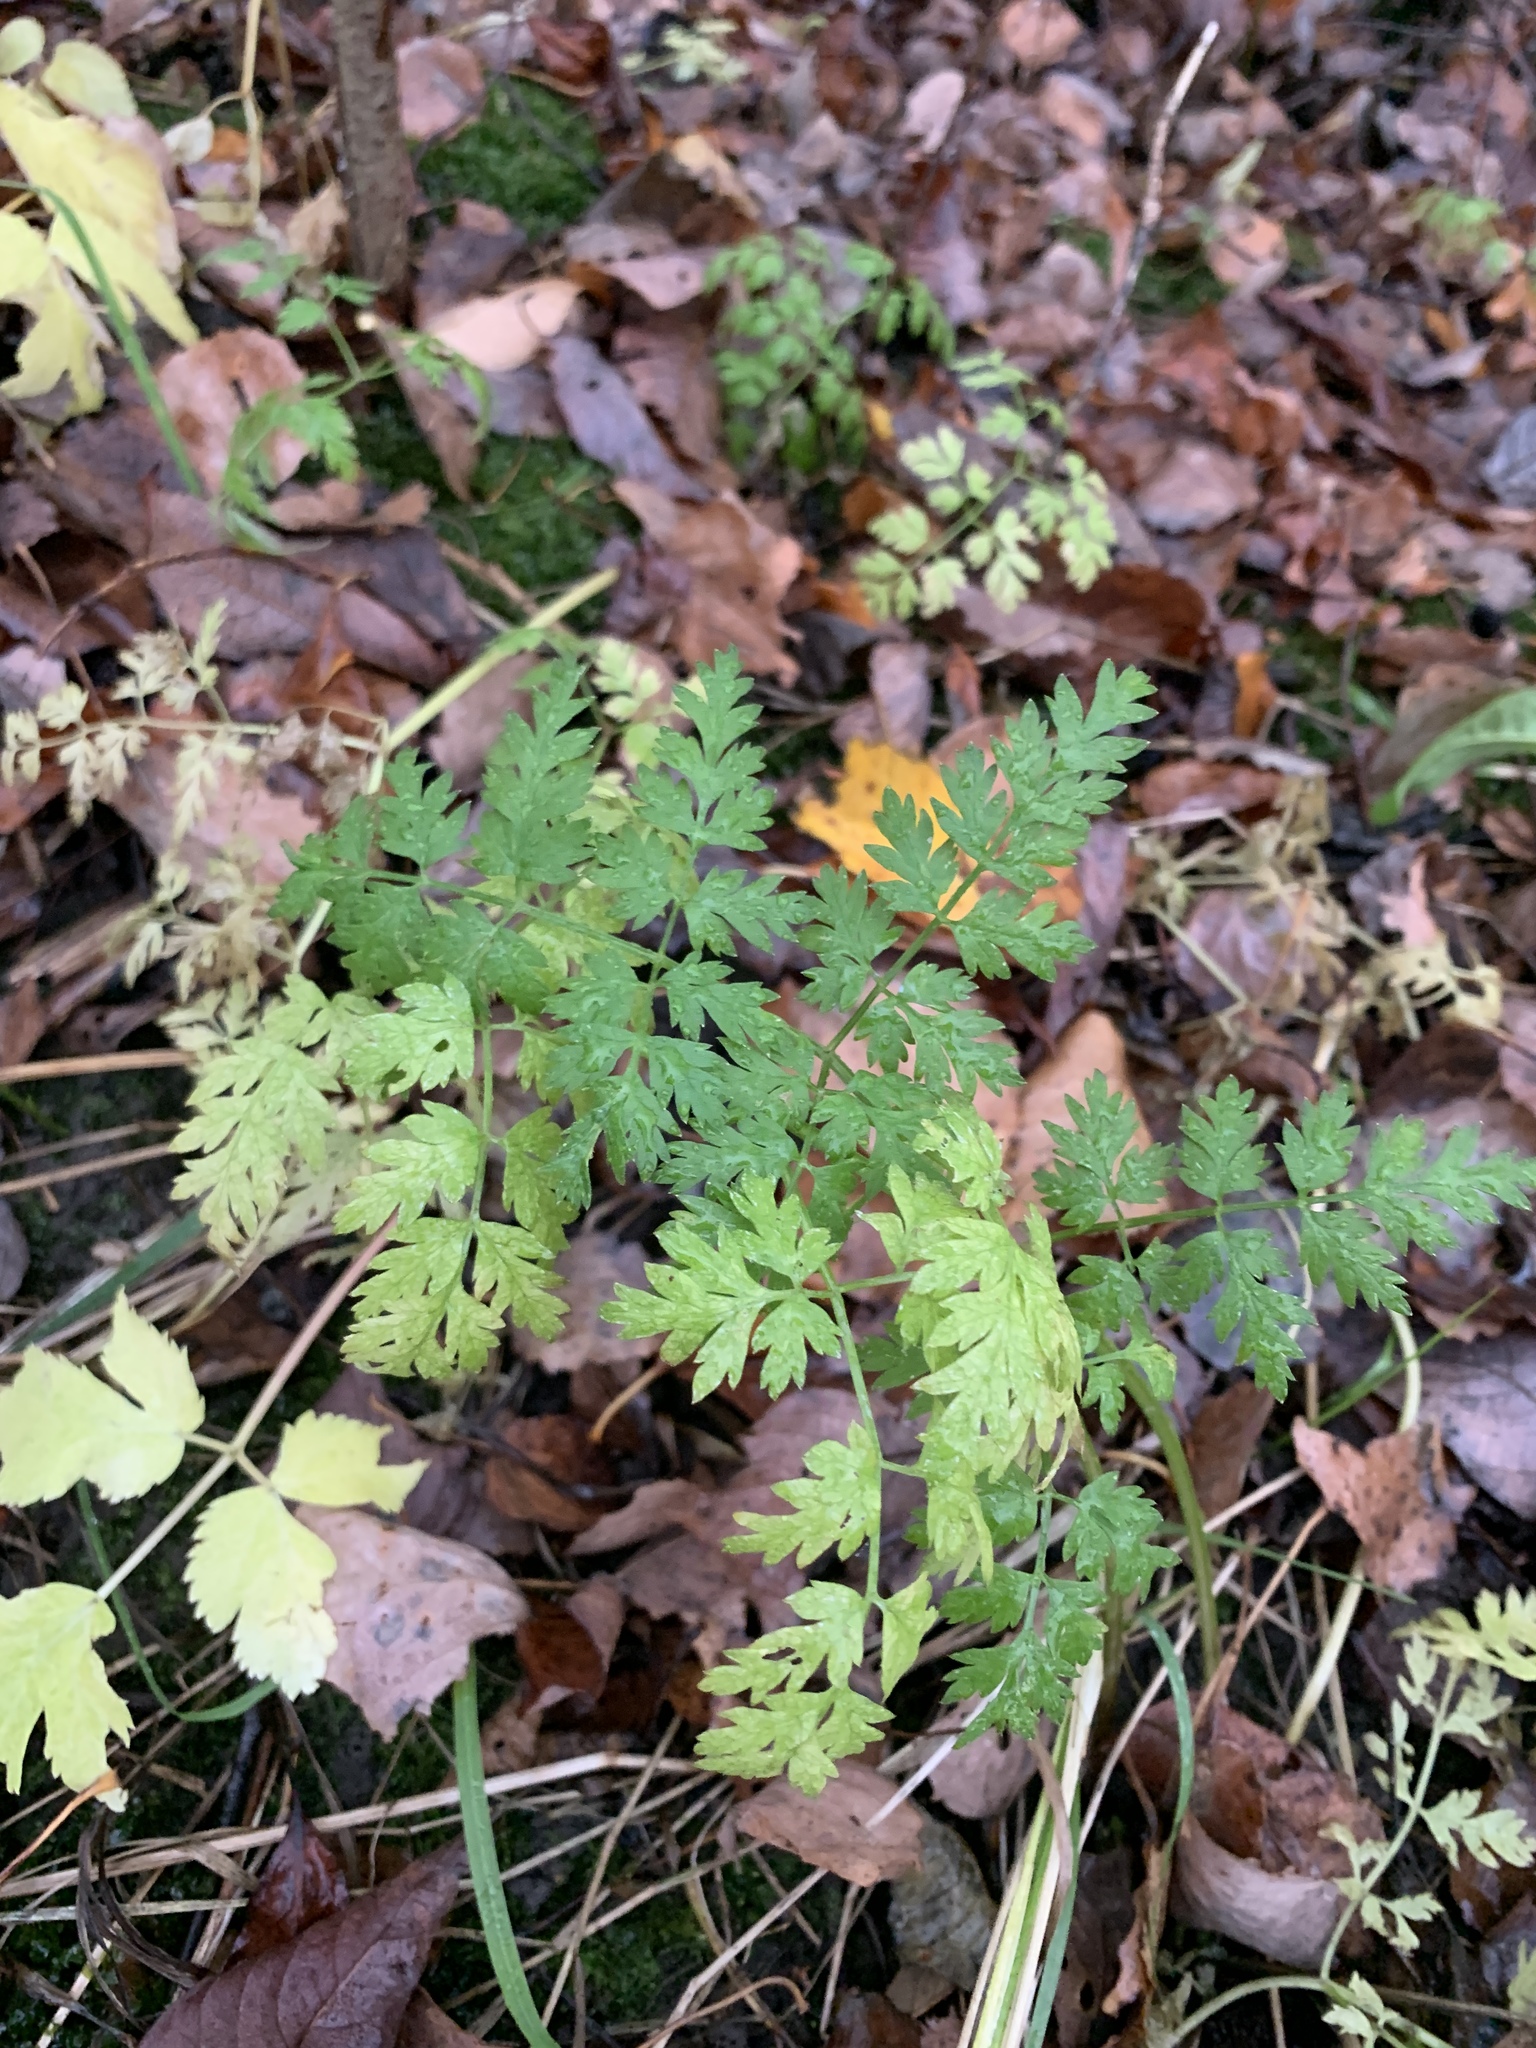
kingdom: Plantae
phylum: Tracheophyta
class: Magnoliopsida
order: Apiales
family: Apiaceae
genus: Anthriscus
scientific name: Anthriscus sylvestris
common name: Cow parsley
